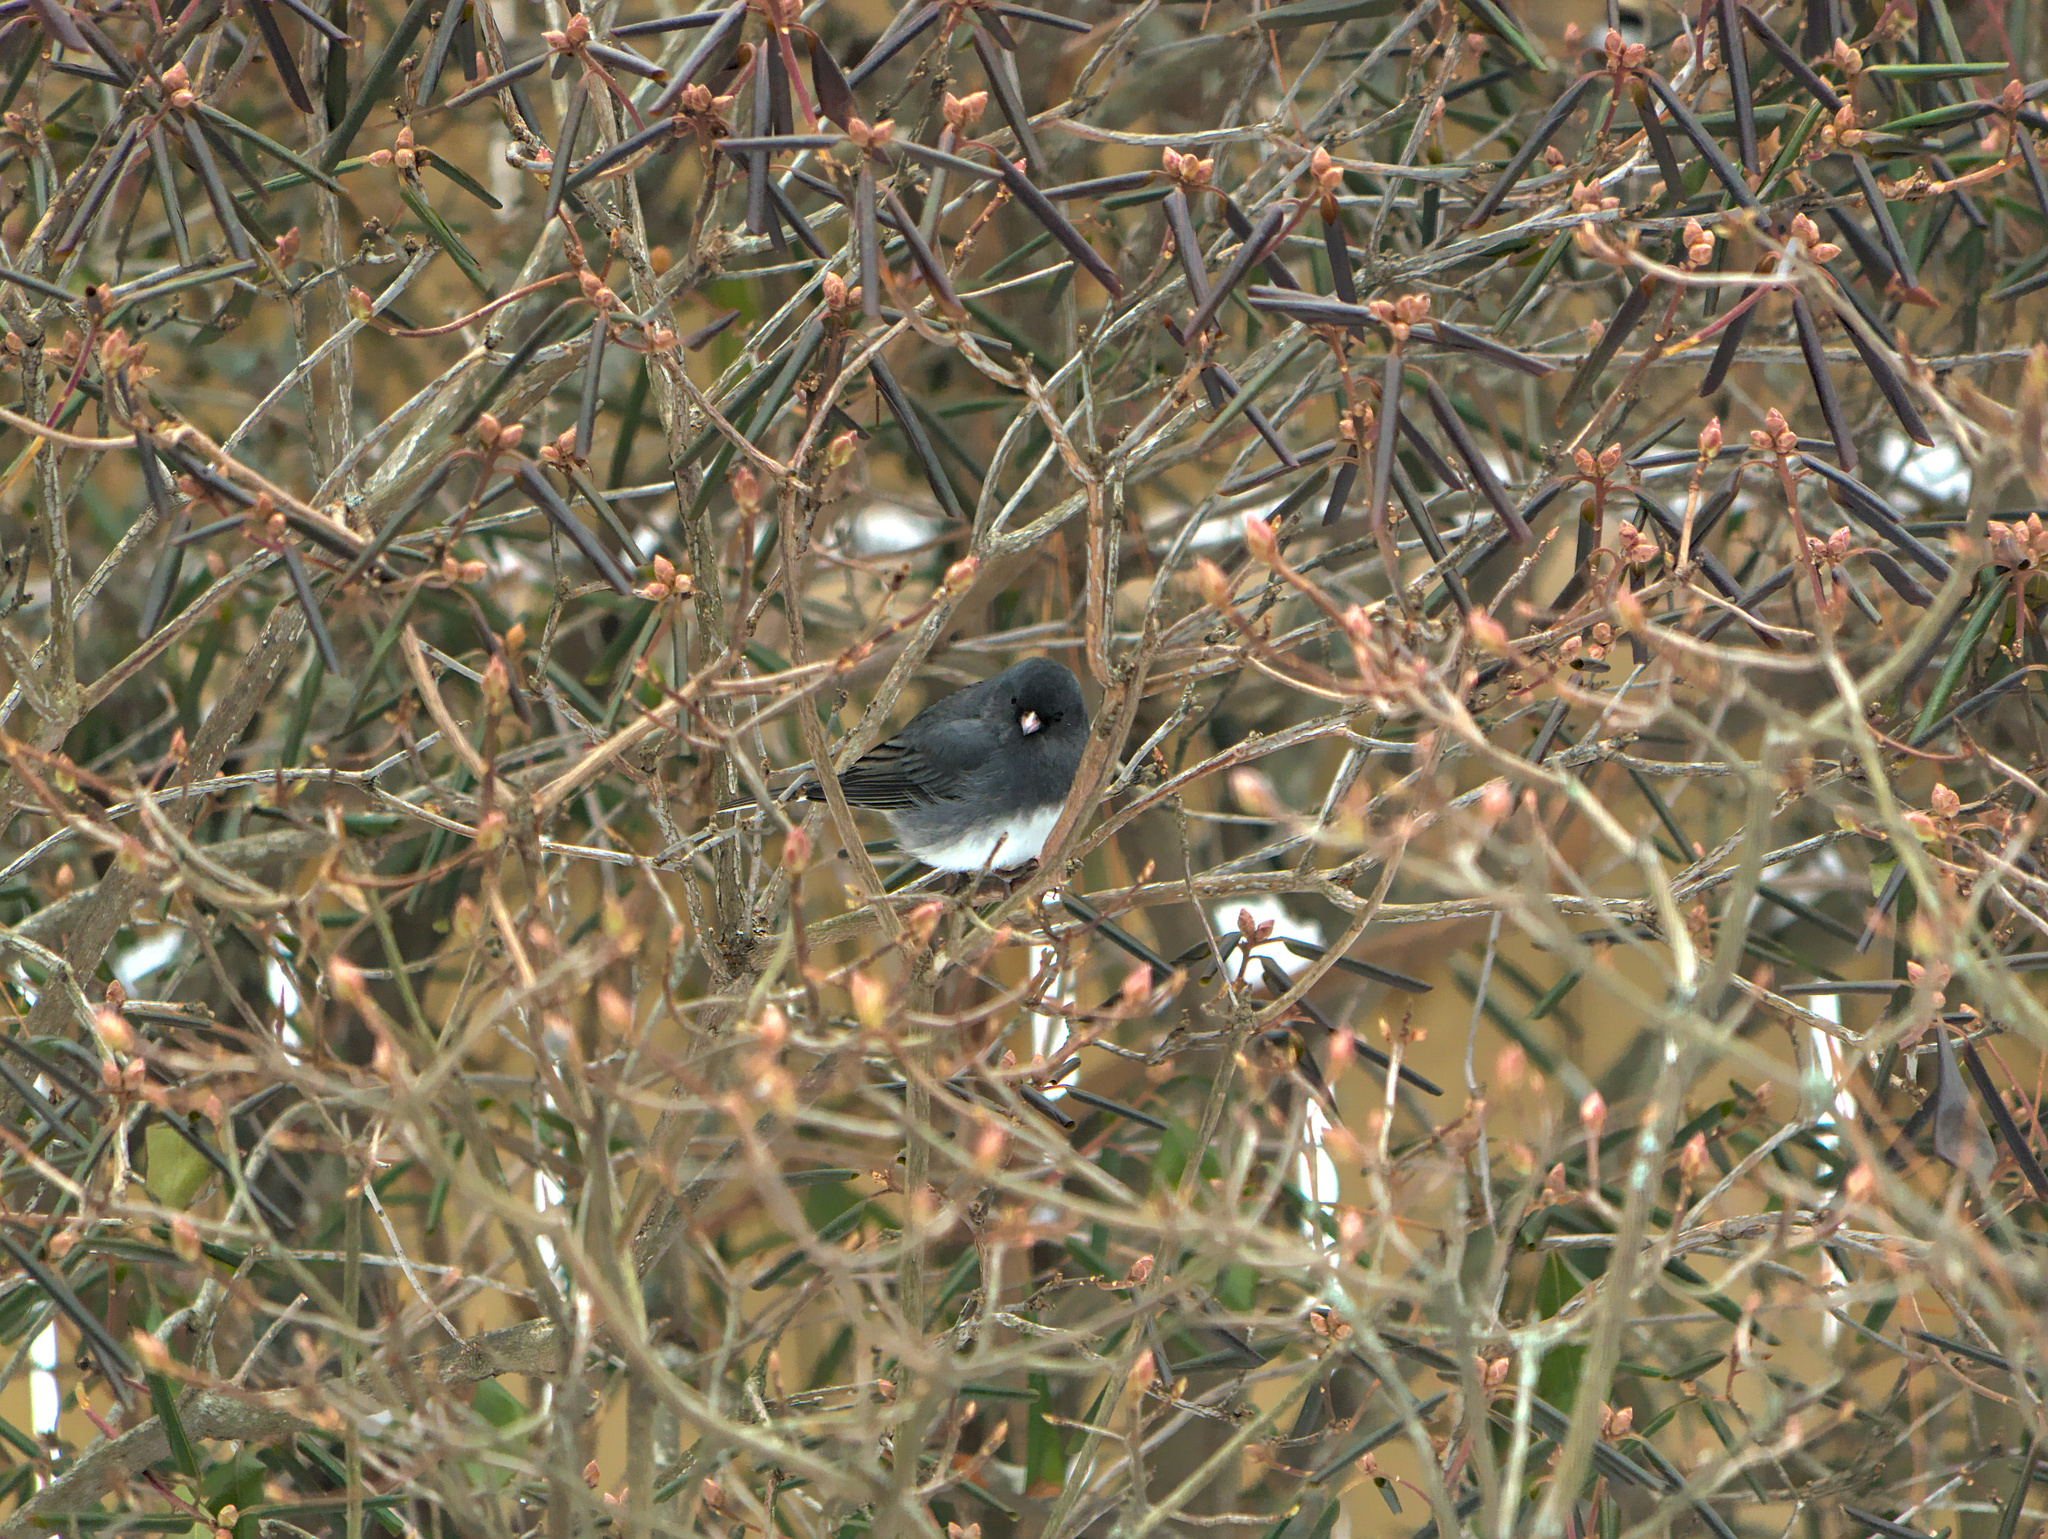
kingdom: Animalia
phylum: Chordata
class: Aves
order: Passeriformes
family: Passerellidae
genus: Junco
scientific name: Junco hyemalis
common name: Dark-eyed junco
